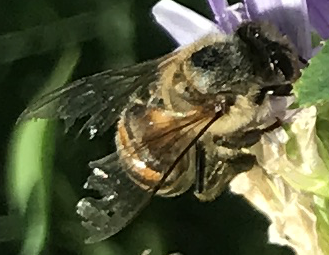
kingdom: Animalia
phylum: Arthropoda
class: Insecta
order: Hymenoptera
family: Apidae
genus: Apis
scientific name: Apis mellifera
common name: Honey bee
